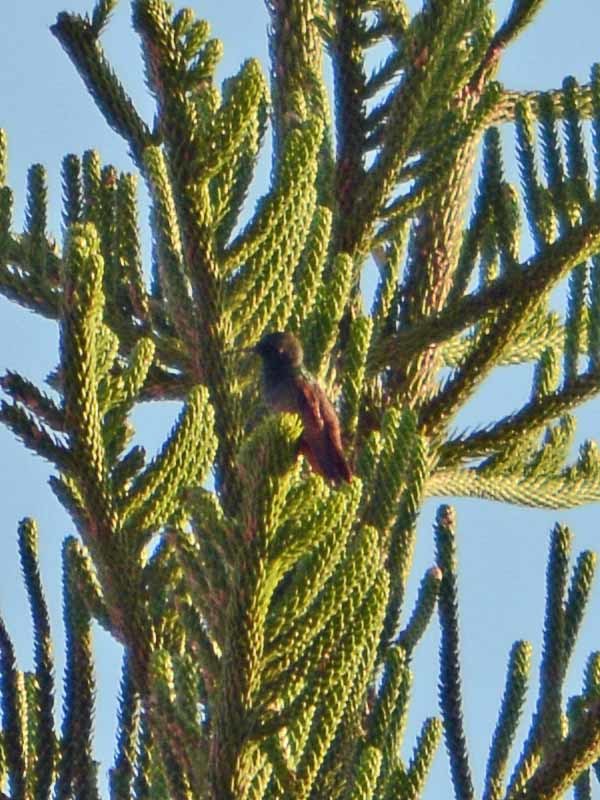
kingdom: Animalia
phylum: Chordata
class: Aves
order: Apodiformes
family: Trochilidae
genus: Saucerottia
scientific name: Saucerottia beryllina
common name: Berylline hummingbird
